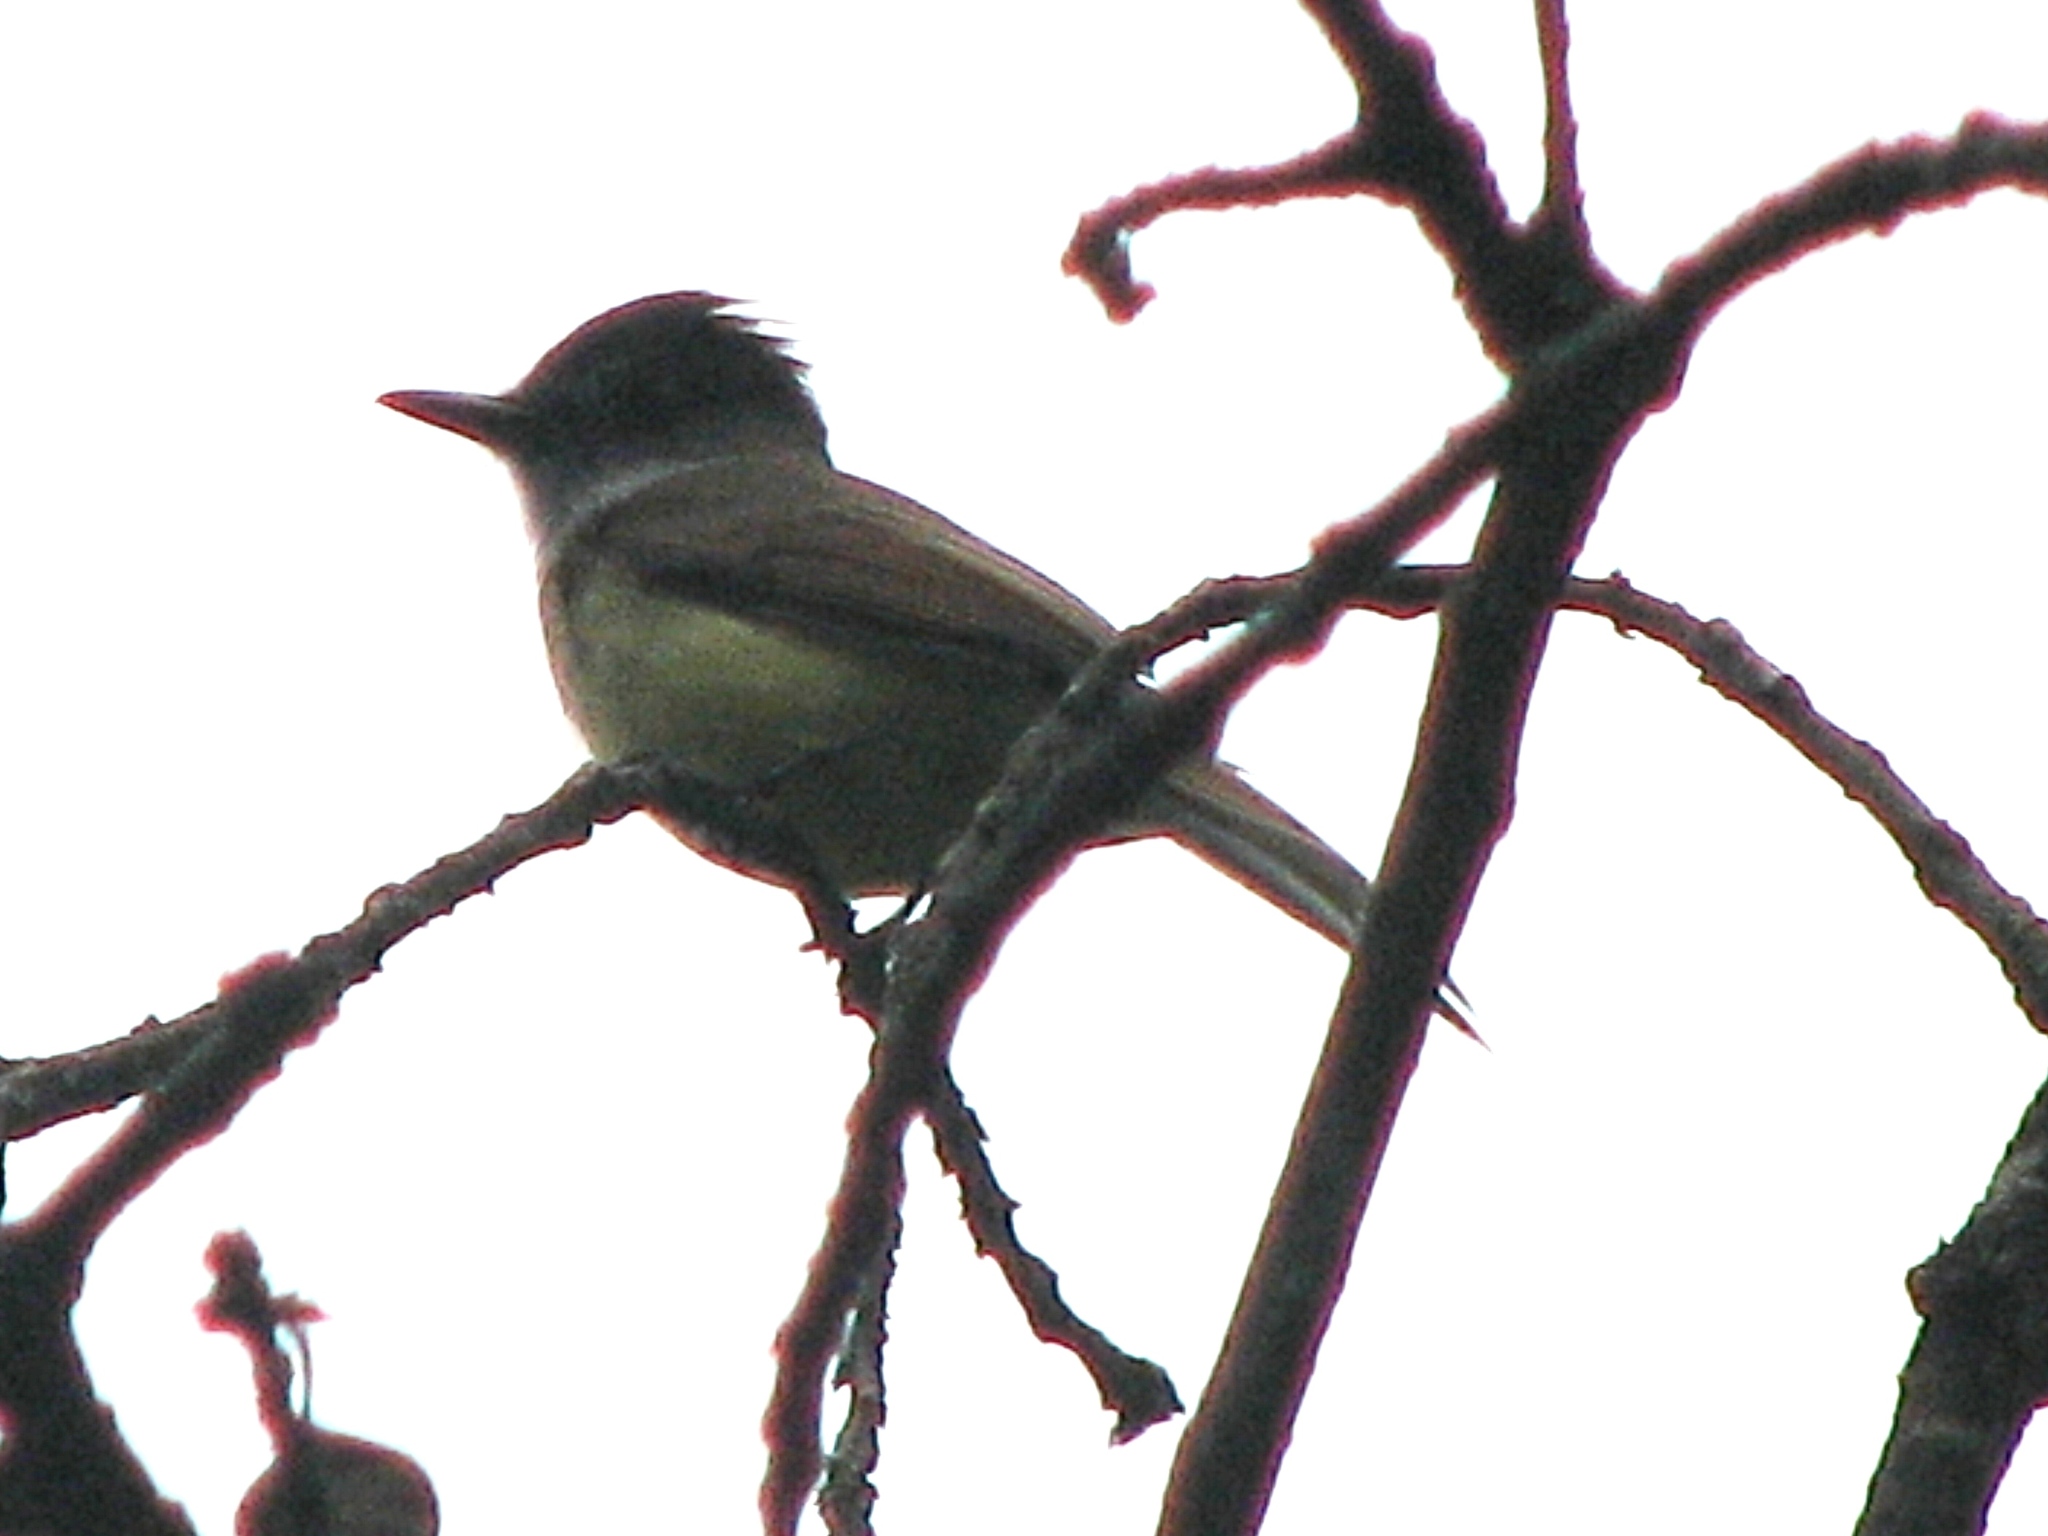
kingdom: Animalia
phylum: Chordata
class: Aves
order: Passeriformes
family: Tyrannidae
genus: Myiarchus
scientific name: Myiarchus tuberculifer
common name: Dusky-capped flycatcher
